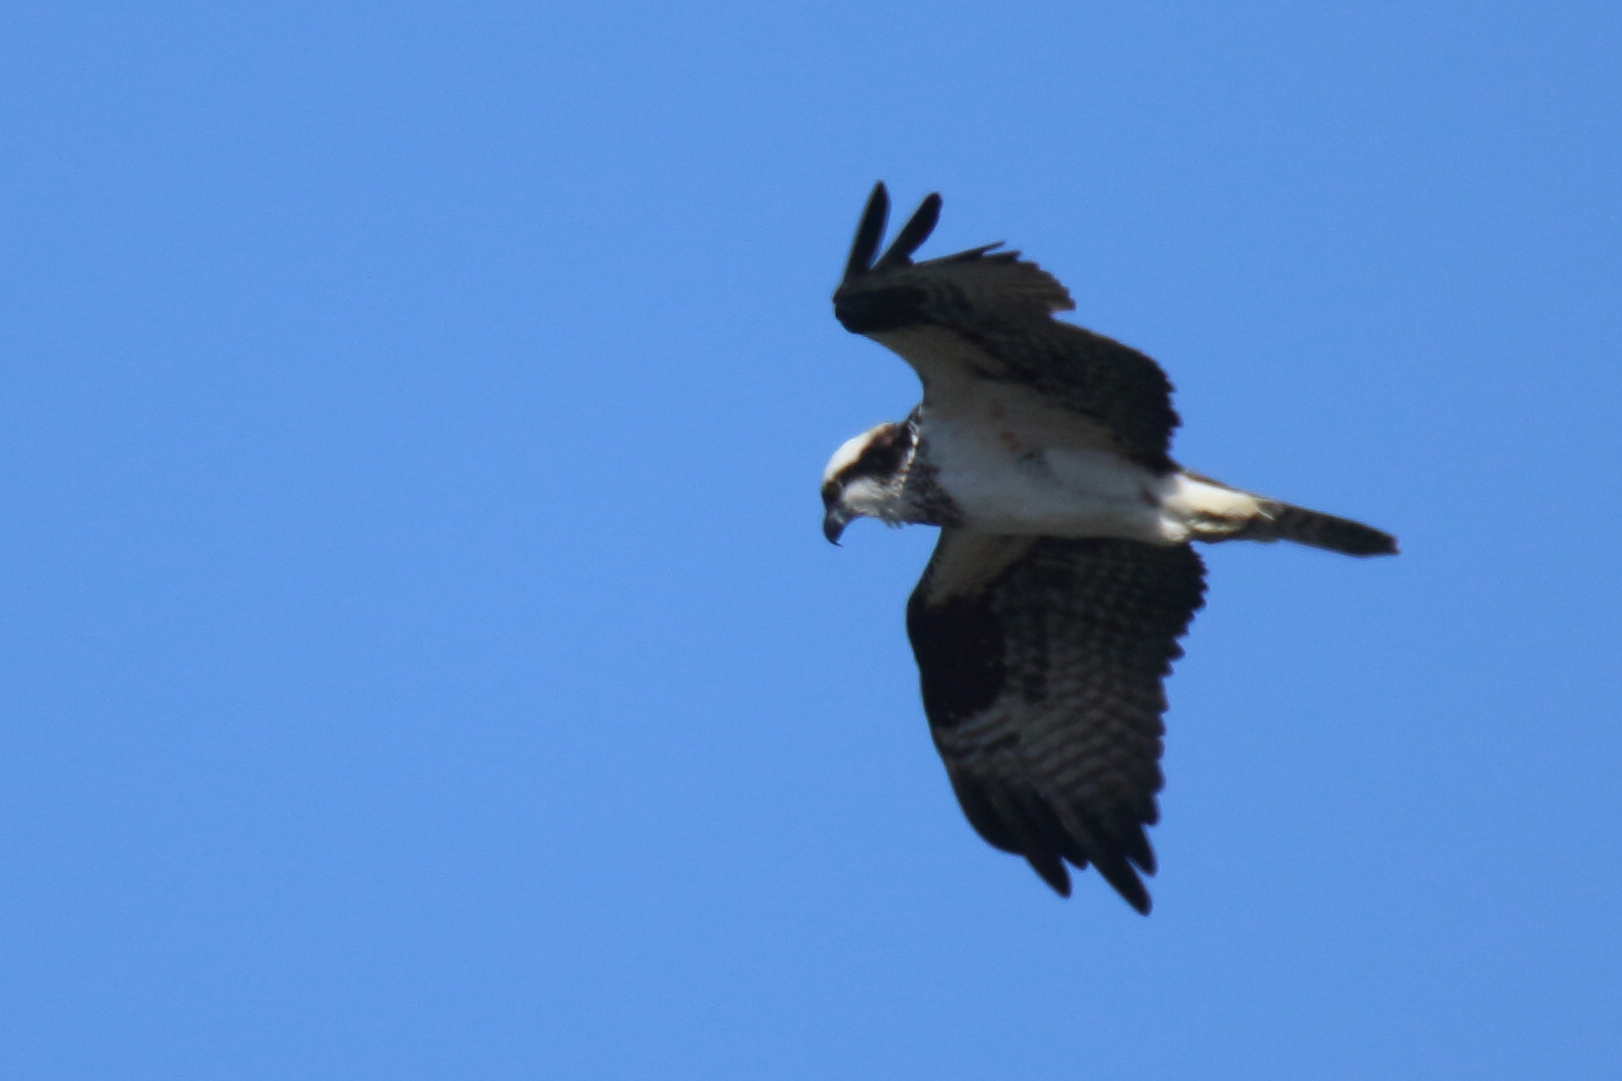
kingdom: Animalia
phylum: Chordata
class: Aves
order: Accipitriformes
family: Pandionidae
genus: Pandion
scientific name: Pandion haliaetus
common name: Osprey
